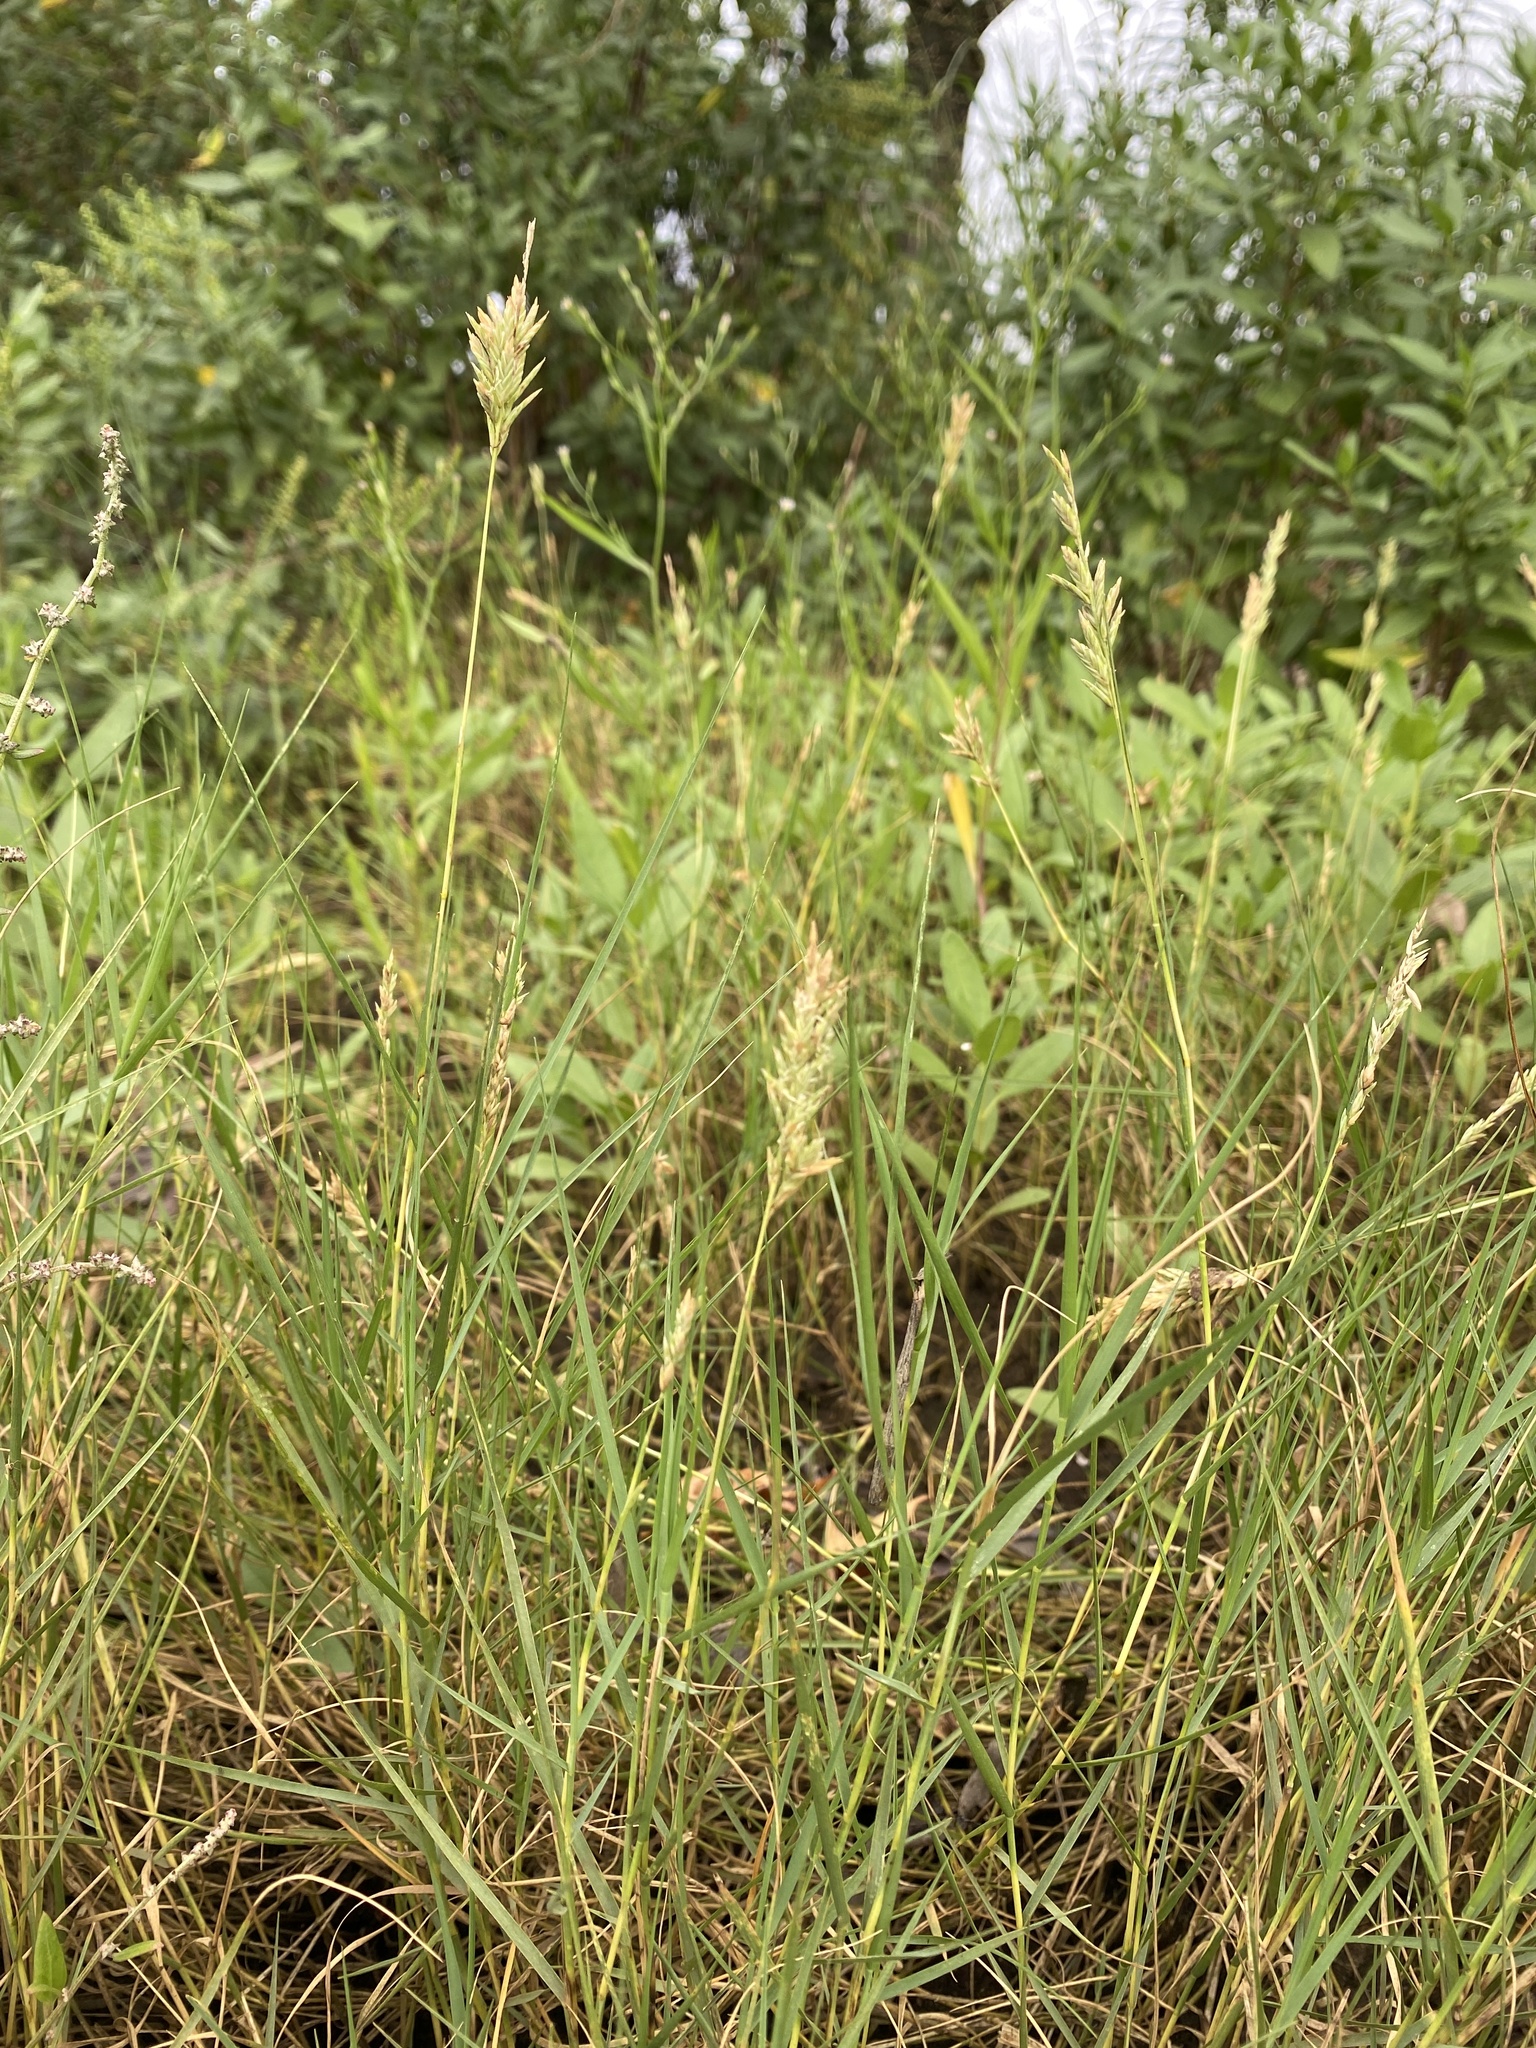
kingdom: Plantae
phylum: Tracheophyta
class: Liliopsida
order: Poales
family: Poaceae
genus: Distichlis
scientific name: Distichlis spicata
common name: Saltgrass
